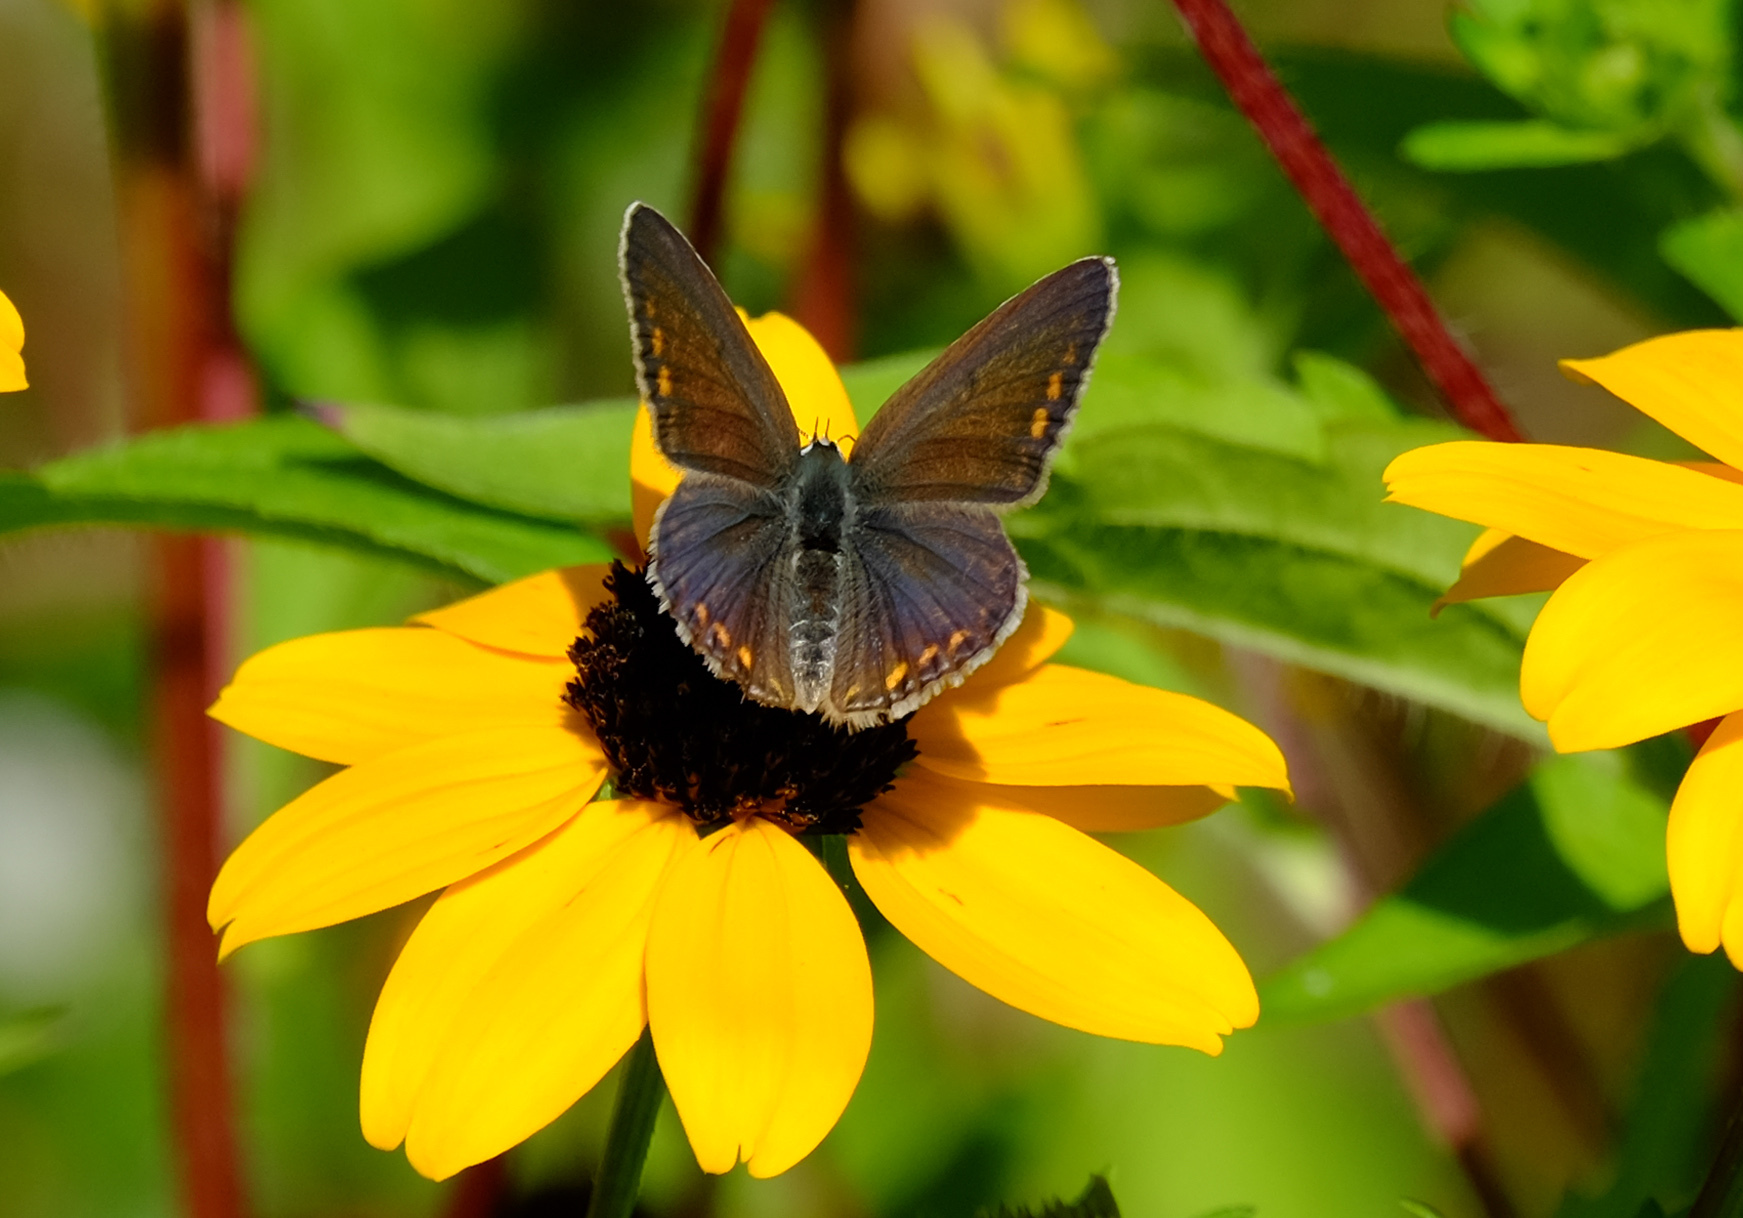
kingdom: Animalia
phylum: Arthropoda
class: Insecta
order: Lepidoptera
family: Lycaenidae
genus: Polyommatus
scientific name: Polyommatus icarus
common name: Common blue
